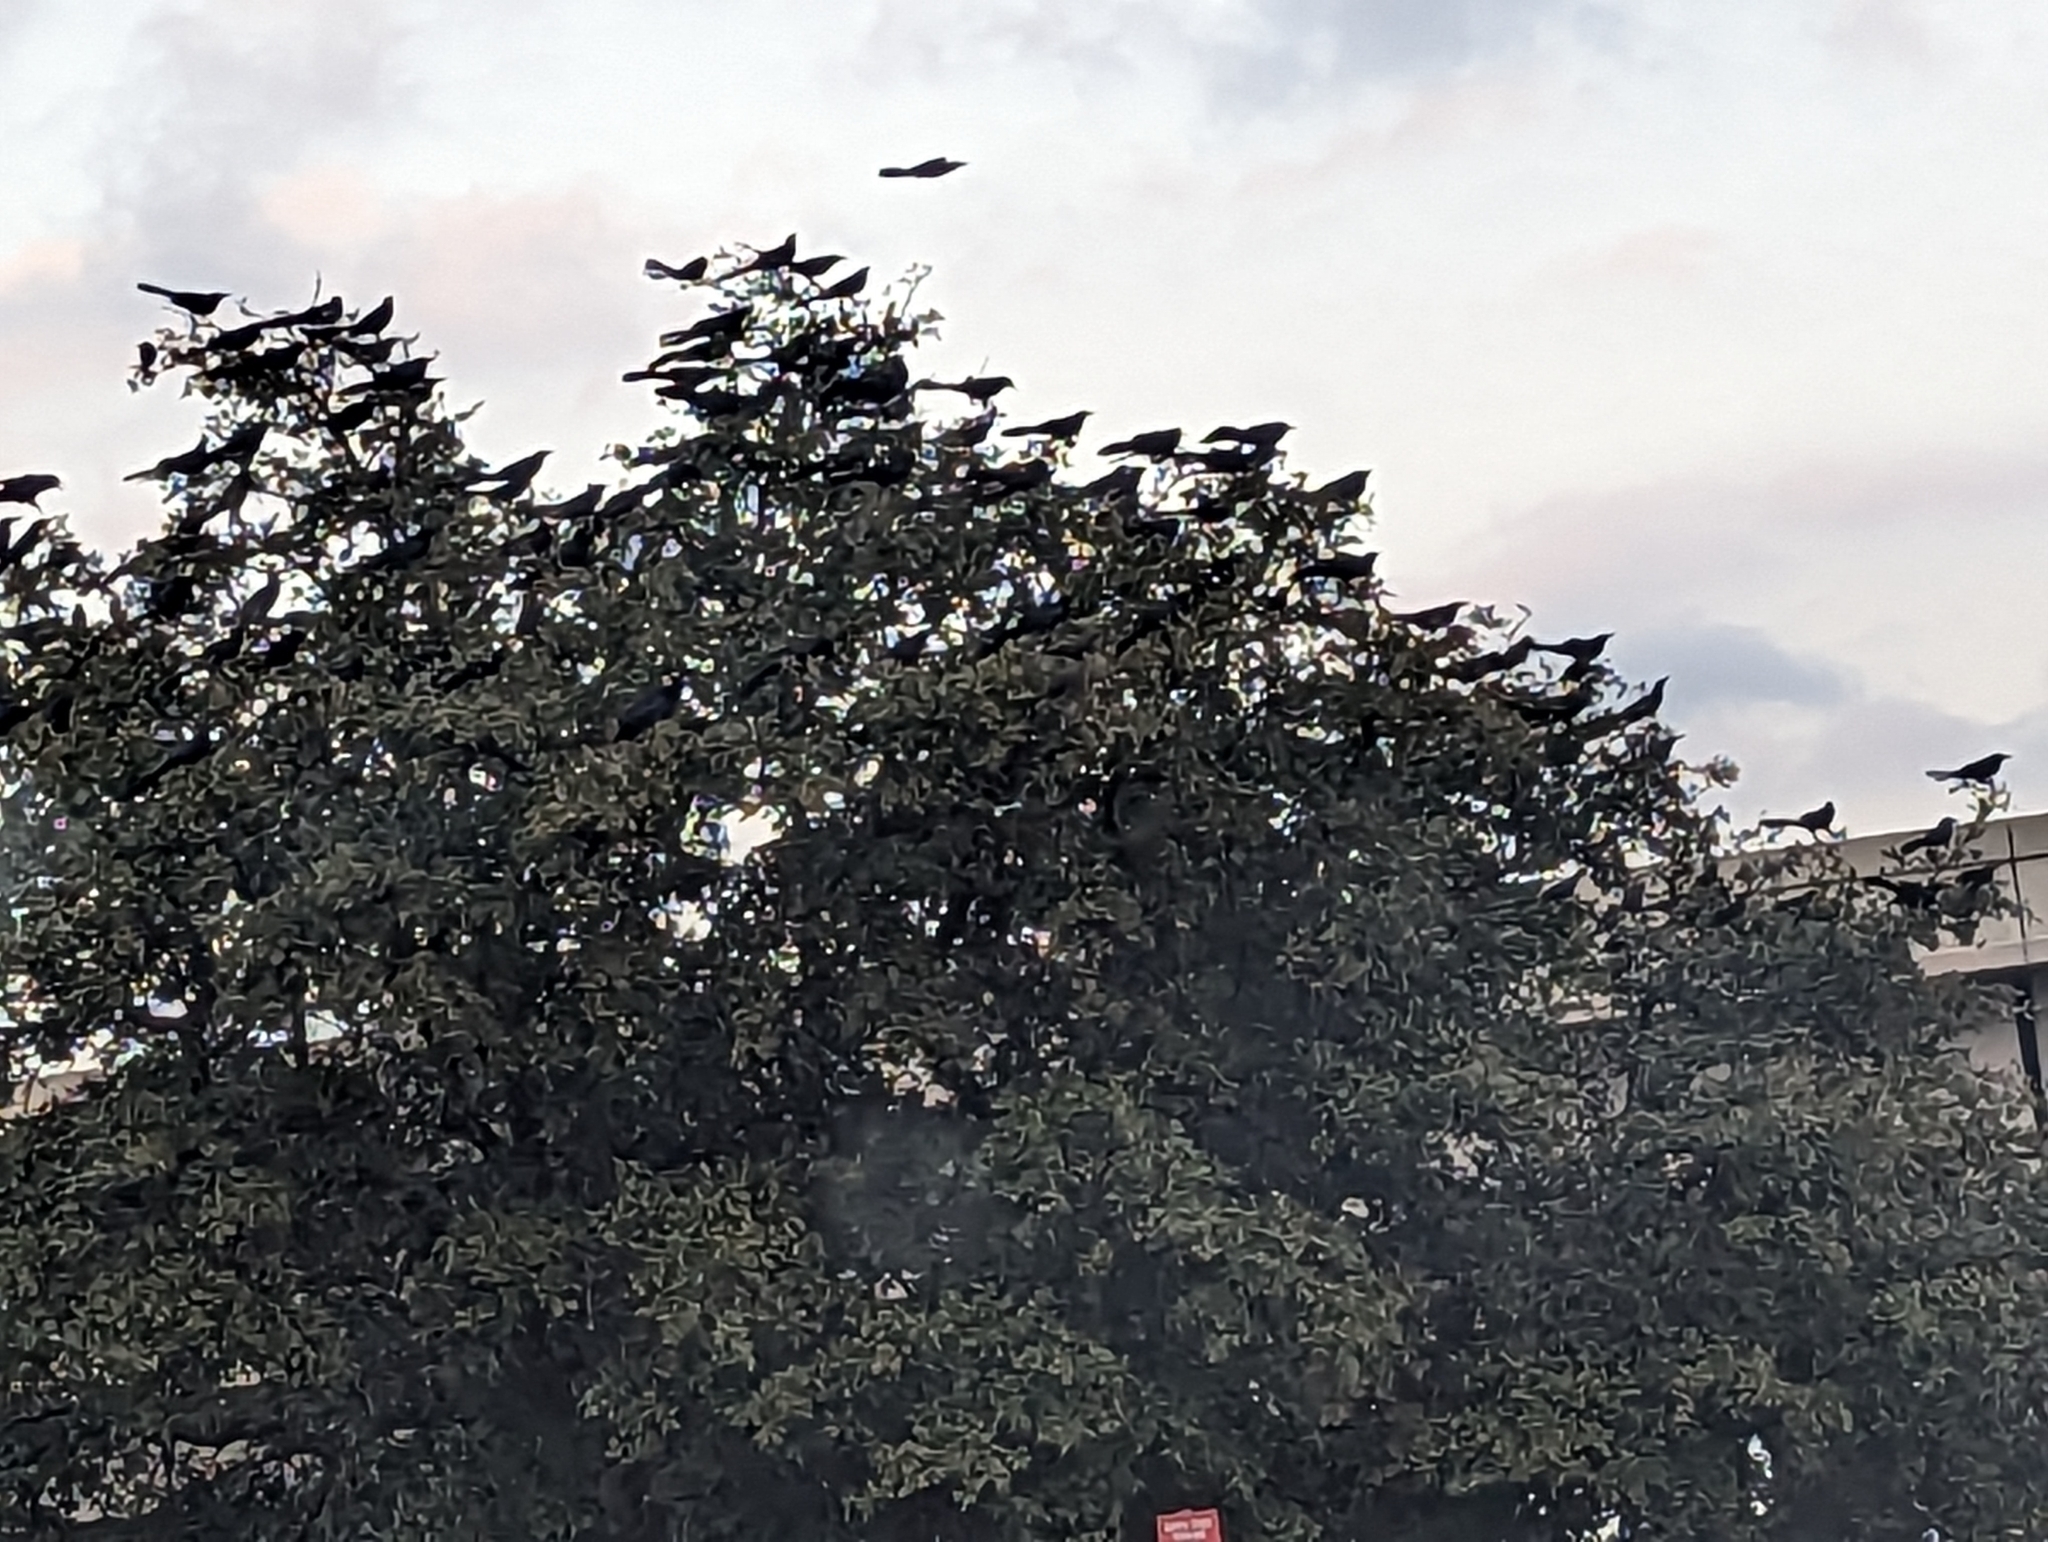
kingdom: Animalia
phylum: Chordata
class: Aves
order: Passeriformes
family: Icteridae
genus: Quiscalus
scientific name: Quiscalus mexicanus
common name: Great-tailed grackle
